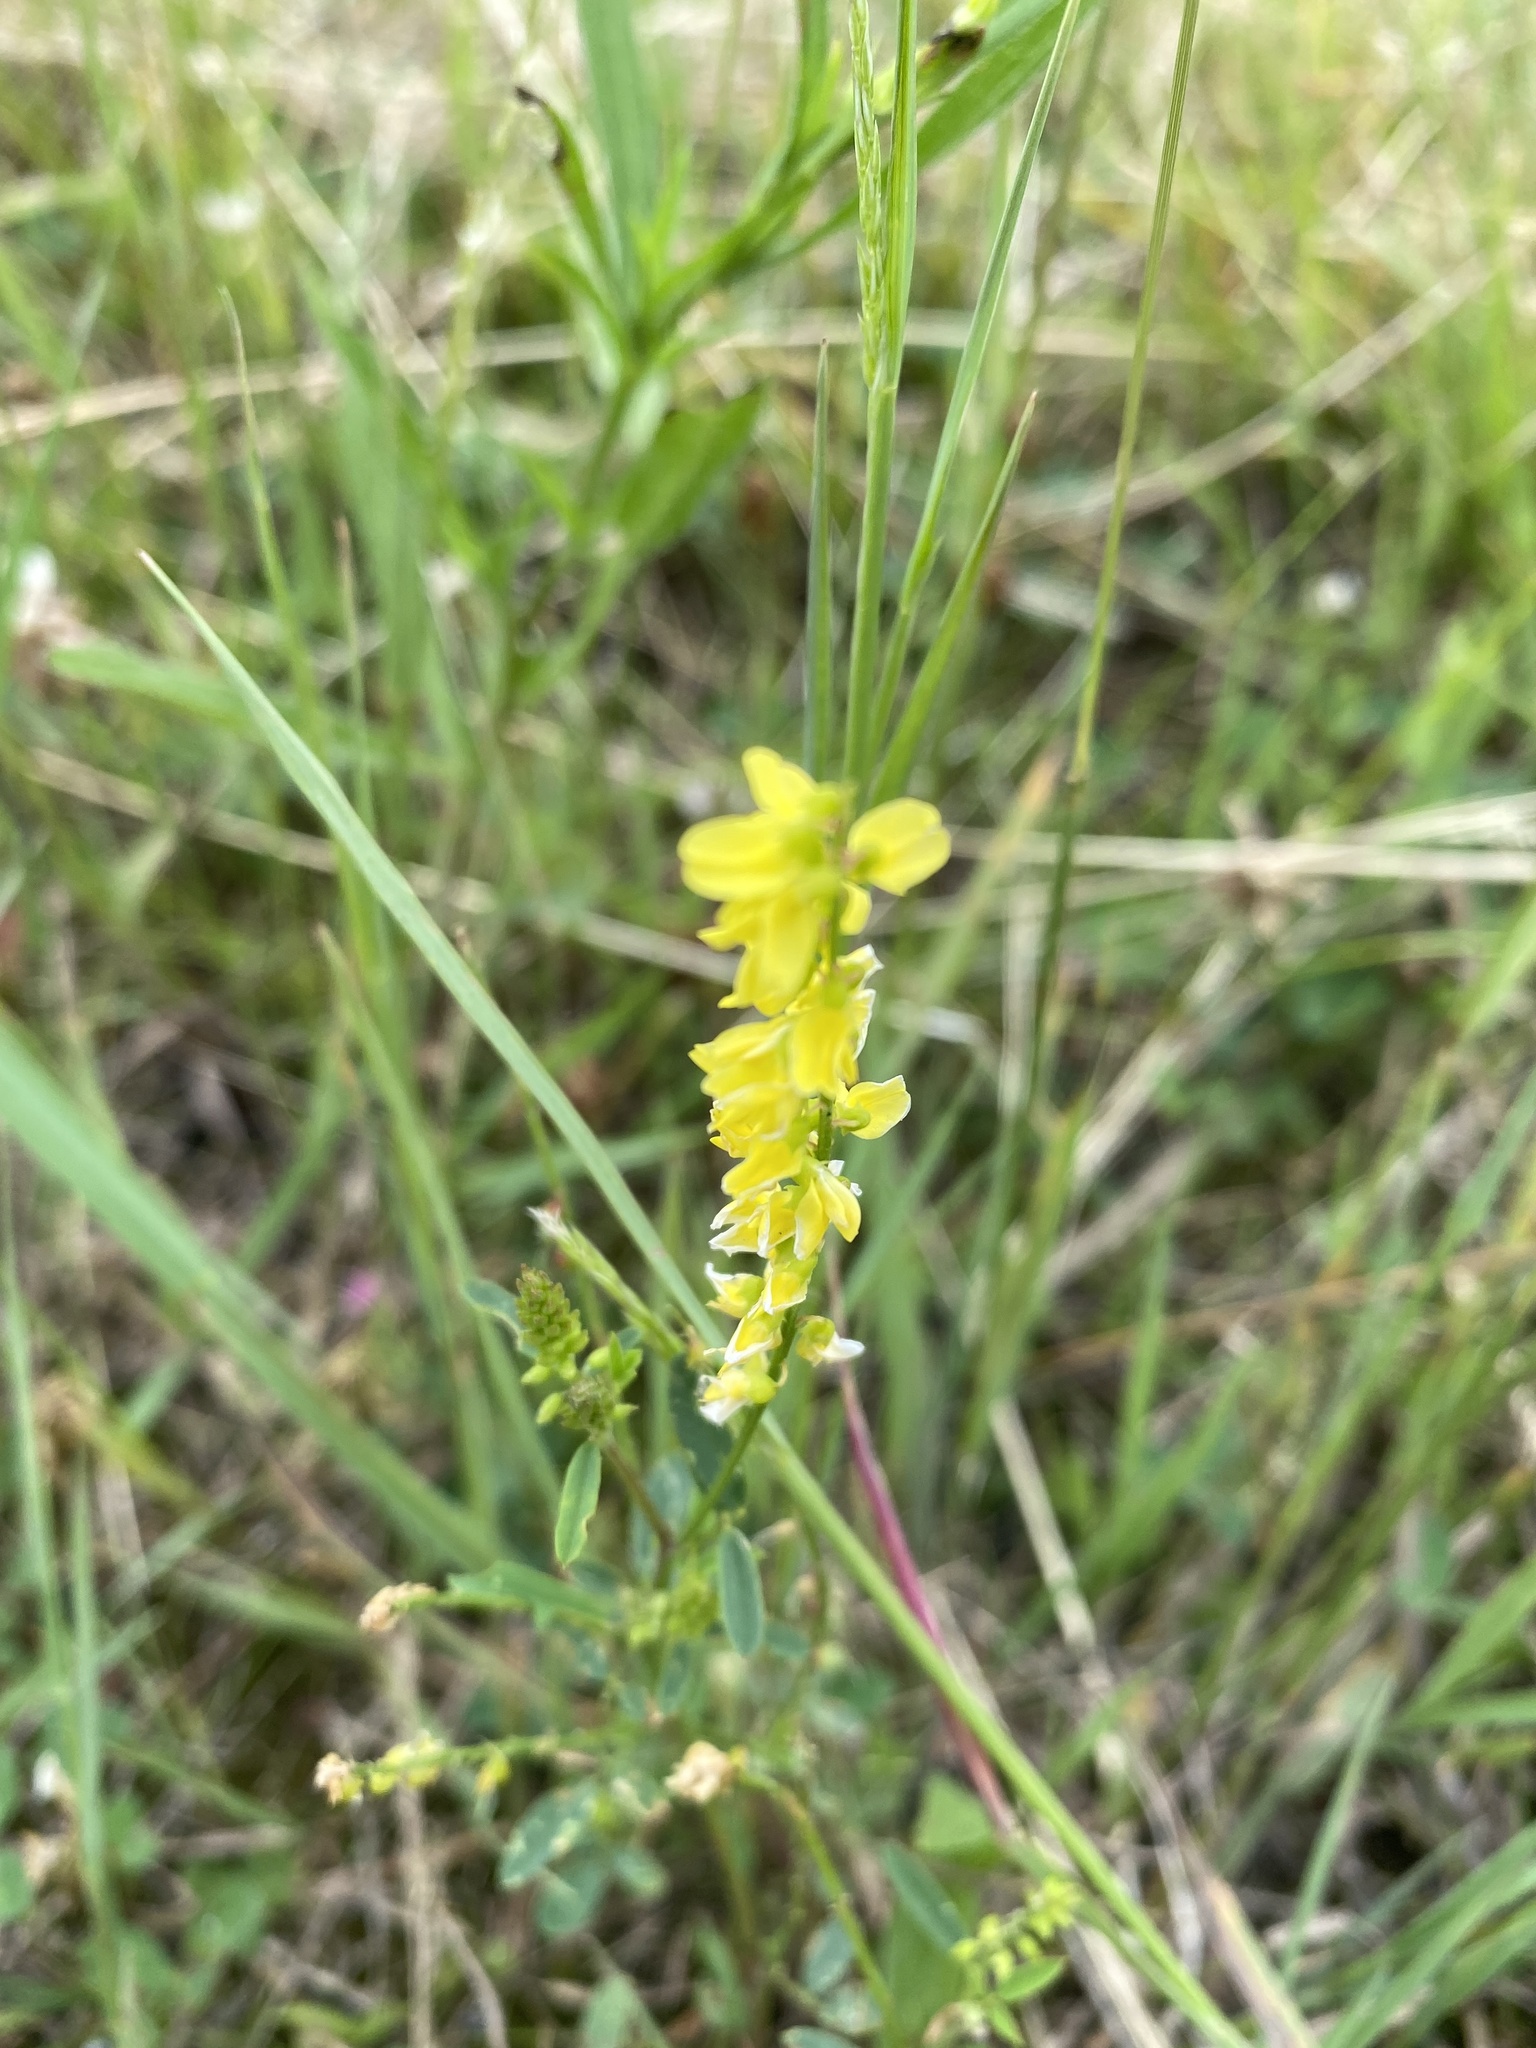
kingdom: Plantae
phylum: Tracheophyta
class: Magnoliopsida
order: Fabales
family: Fabaceae
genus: Melilotus
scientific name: Melilotus officinalis
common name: Sweetclover
